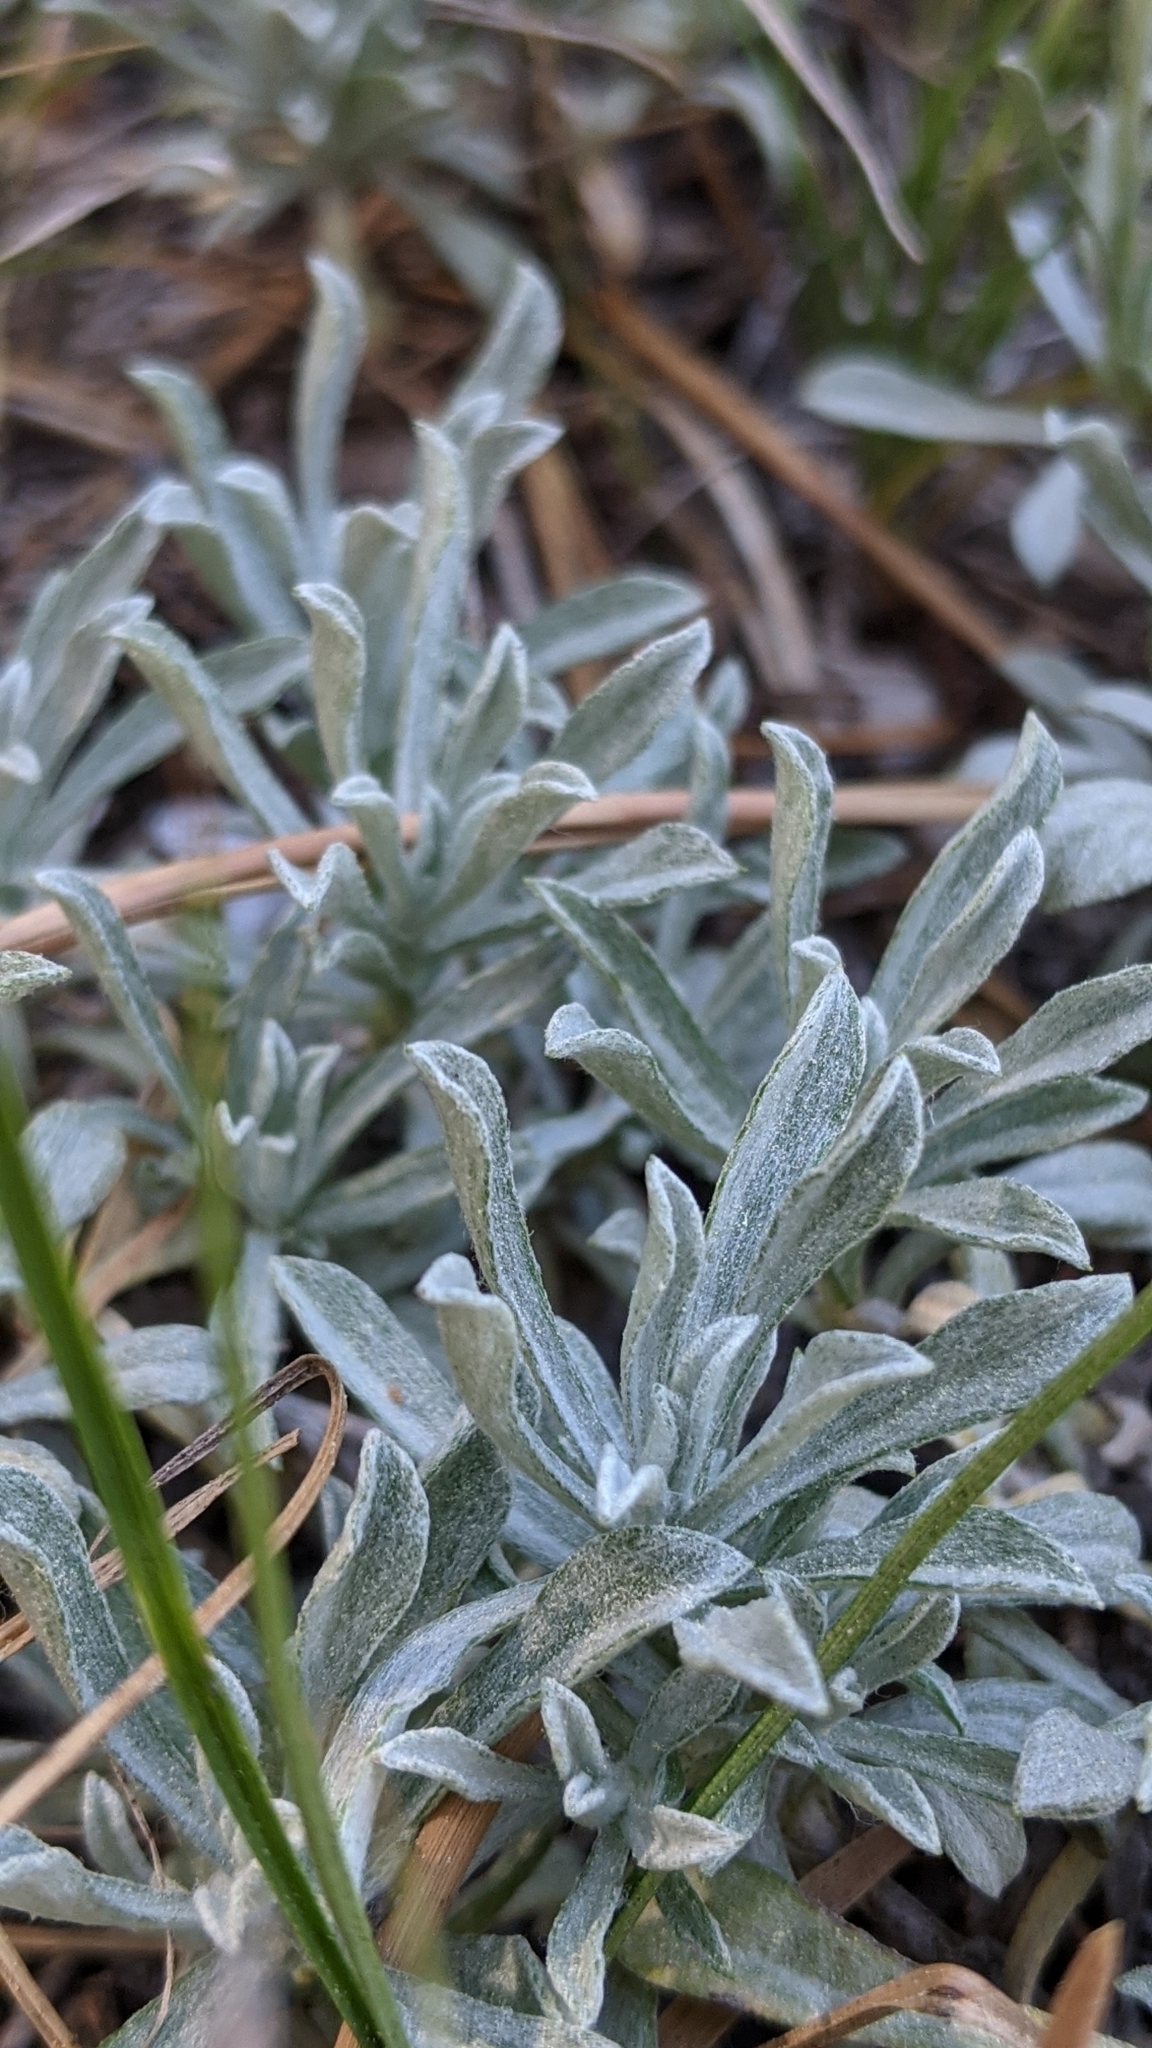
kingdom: Plantae
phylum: Tracheophyta
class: Magnoliopsida
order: Asterales
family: Asteraceae
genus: Antennaria
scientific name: Antennaria rosea
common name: Rosy pussytoes
